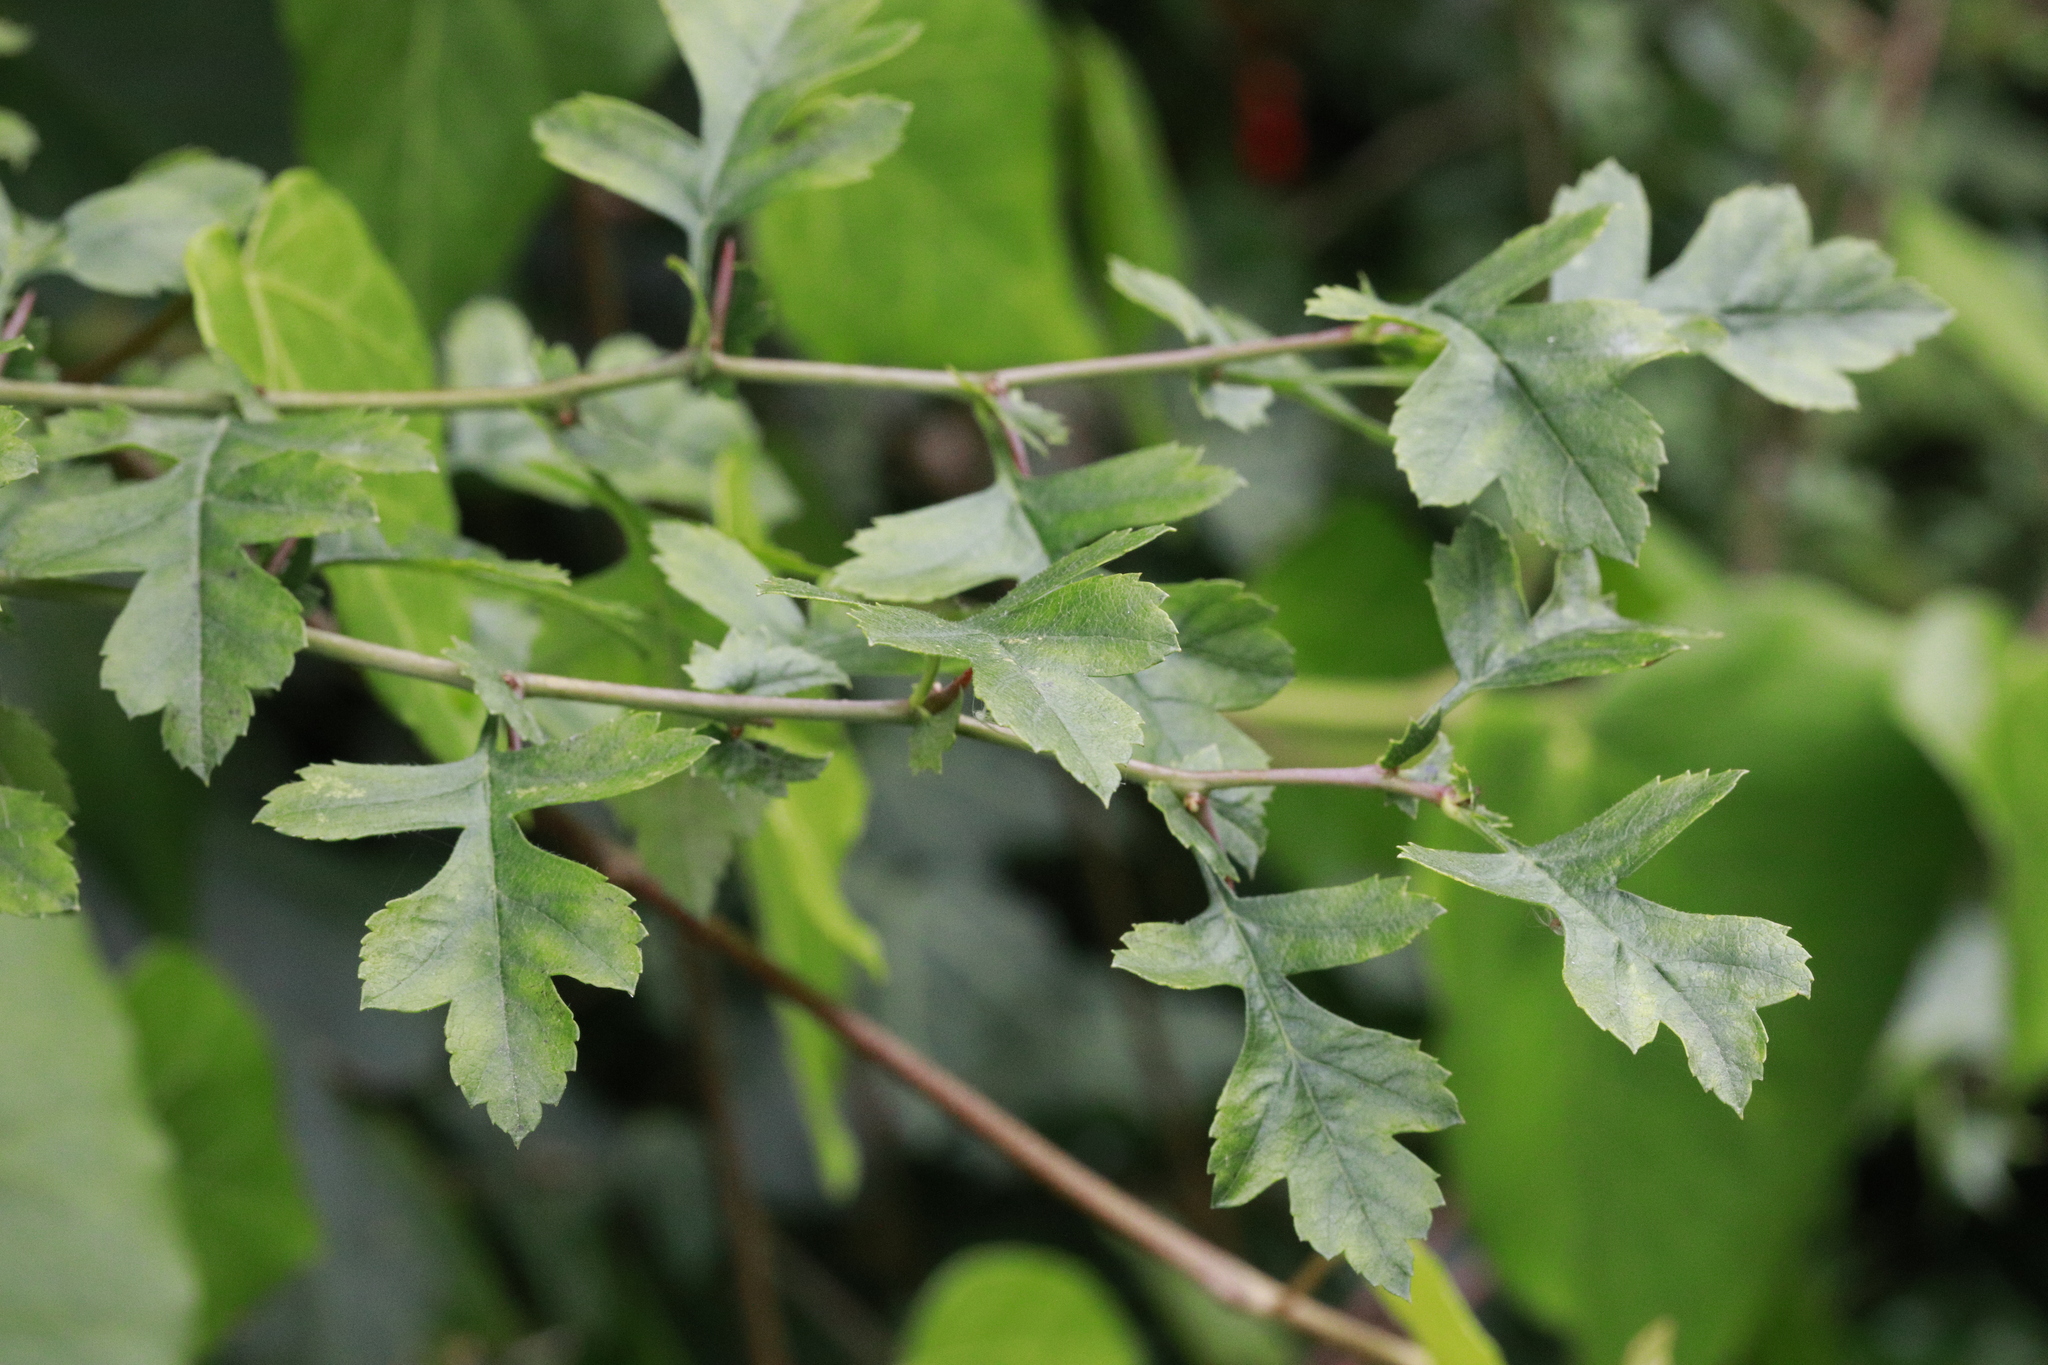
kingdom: Plantae
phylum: Tracheophyta
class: Magnoliopsida
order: Rosales
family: Rosaceae
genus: Crataegus
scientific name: Crataegus monogyna
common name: Hawthorn
